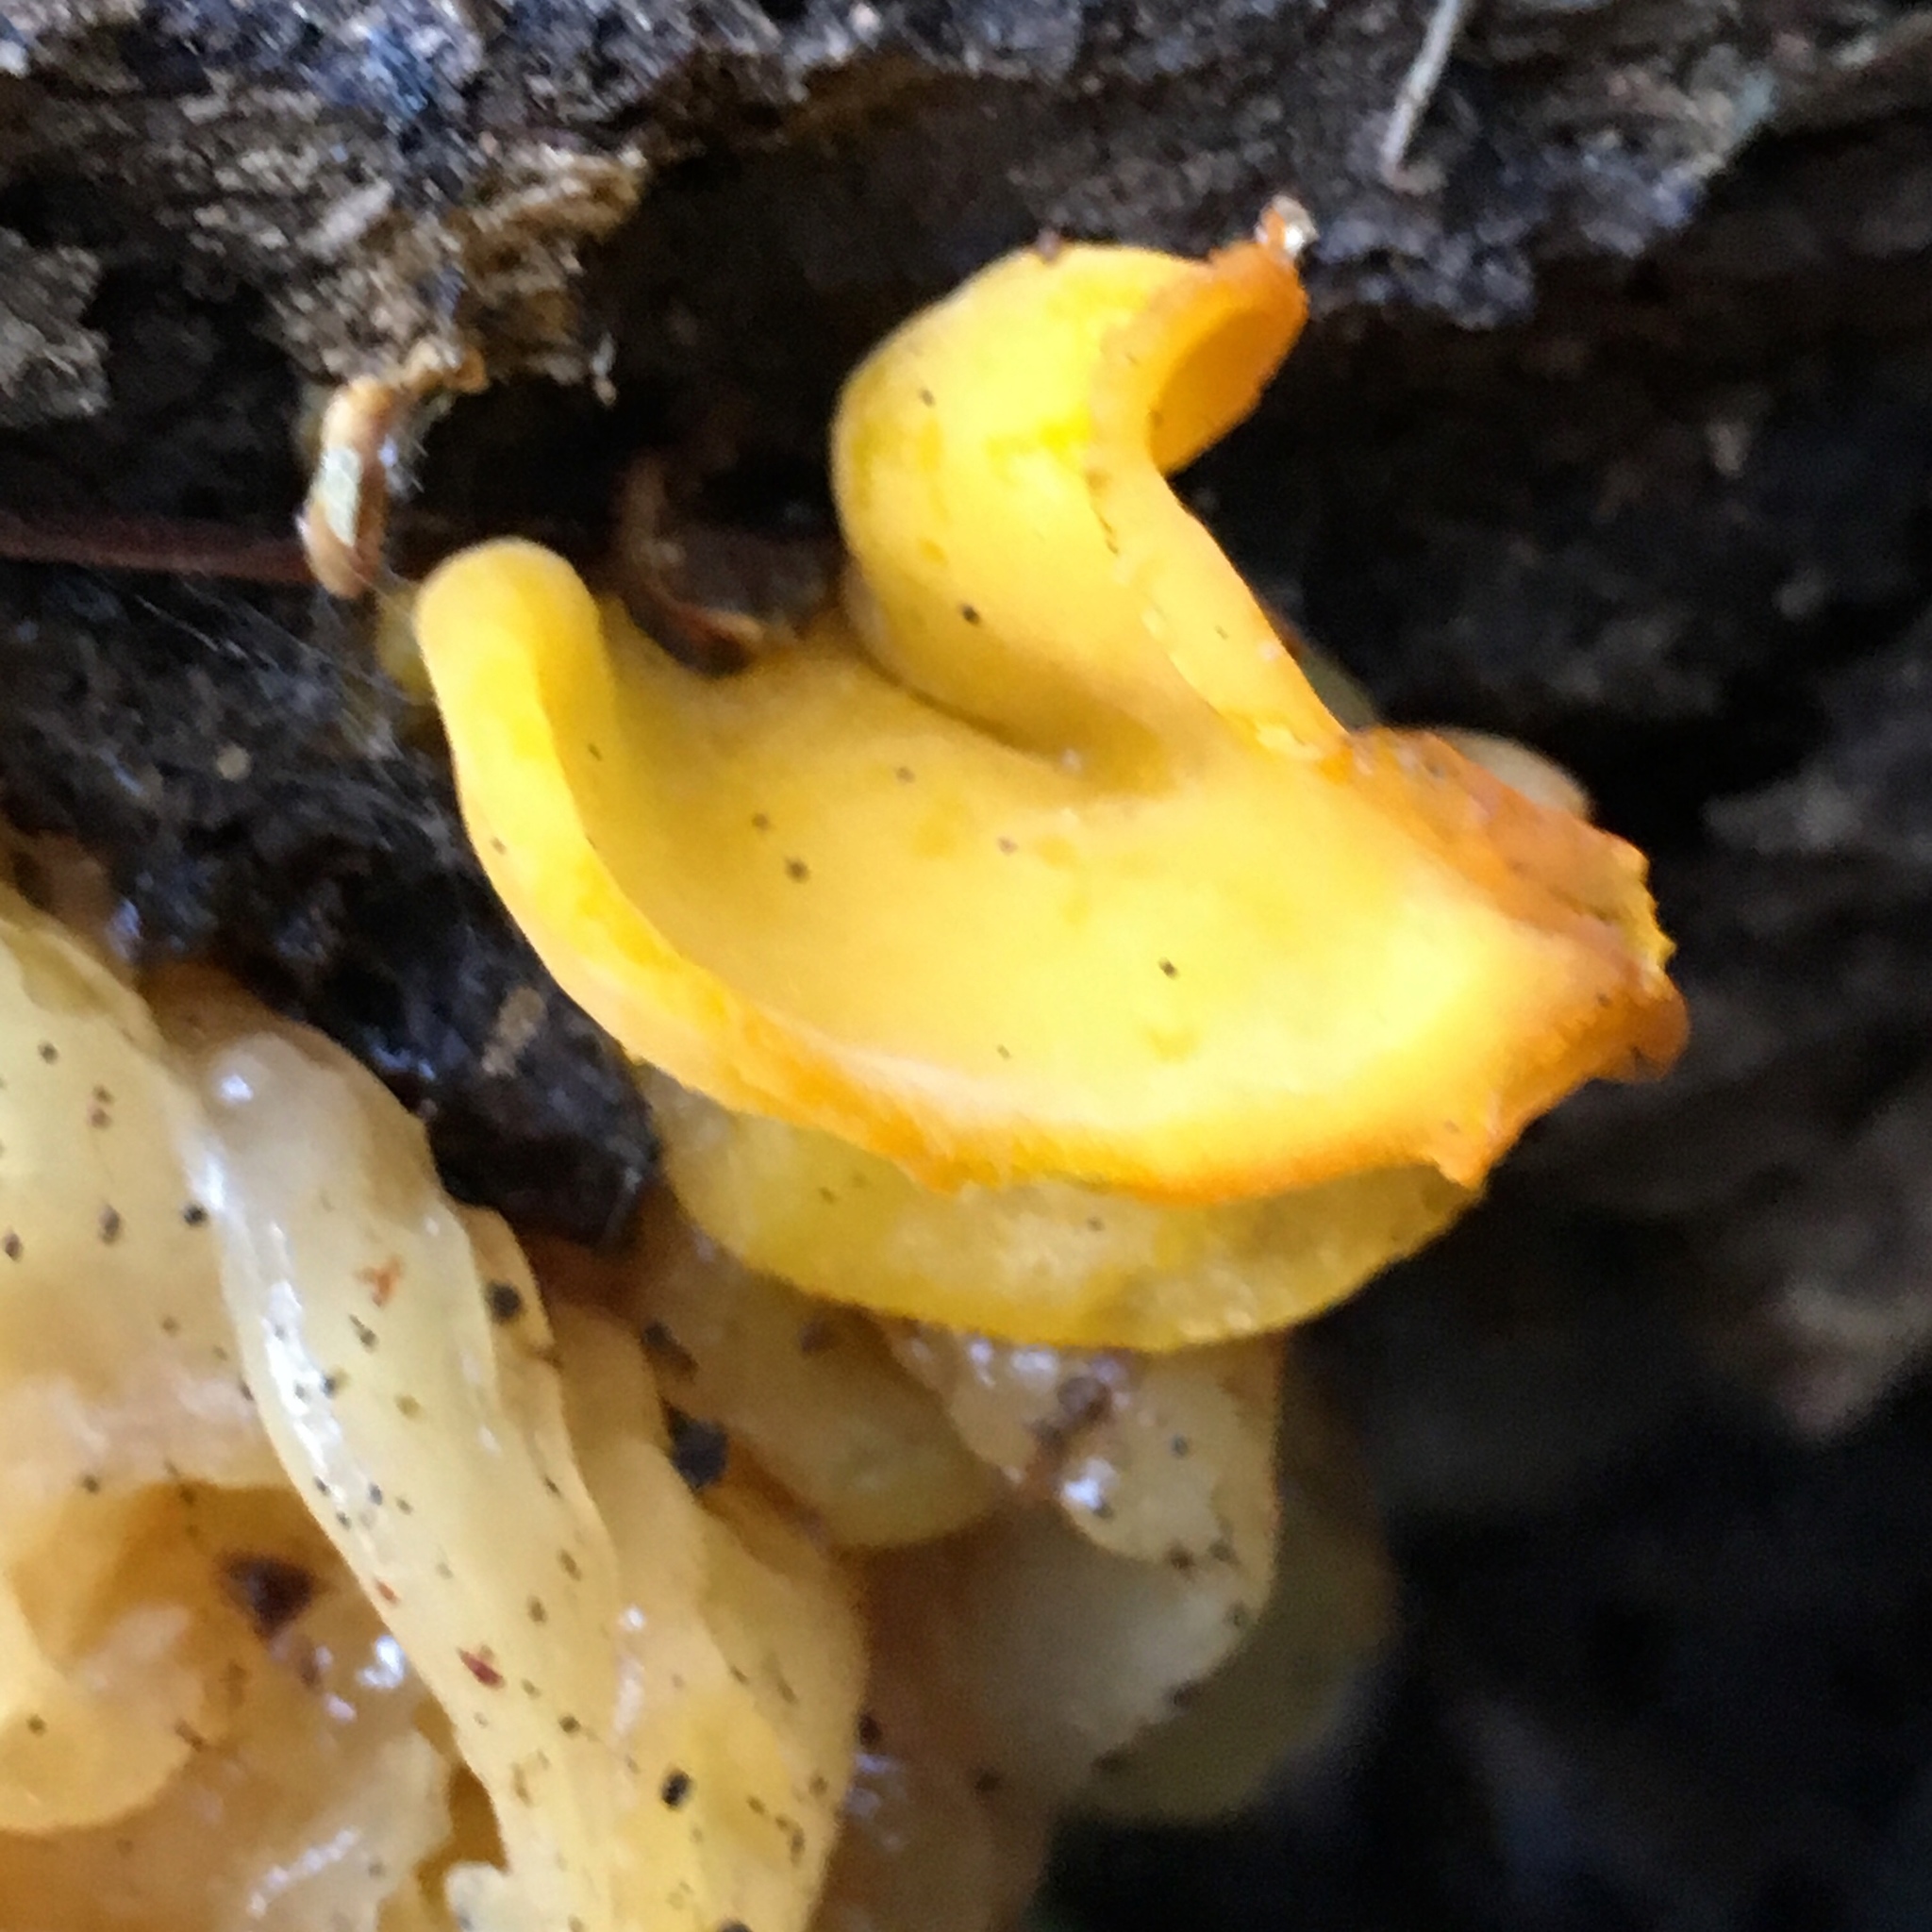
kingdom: Fungi
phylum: Basidiomycota
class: Tremellomycetes
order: Tremellales
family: Naemateliaceae
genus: Naematelia
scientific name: Naematelia aurantia
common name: Golden ear
